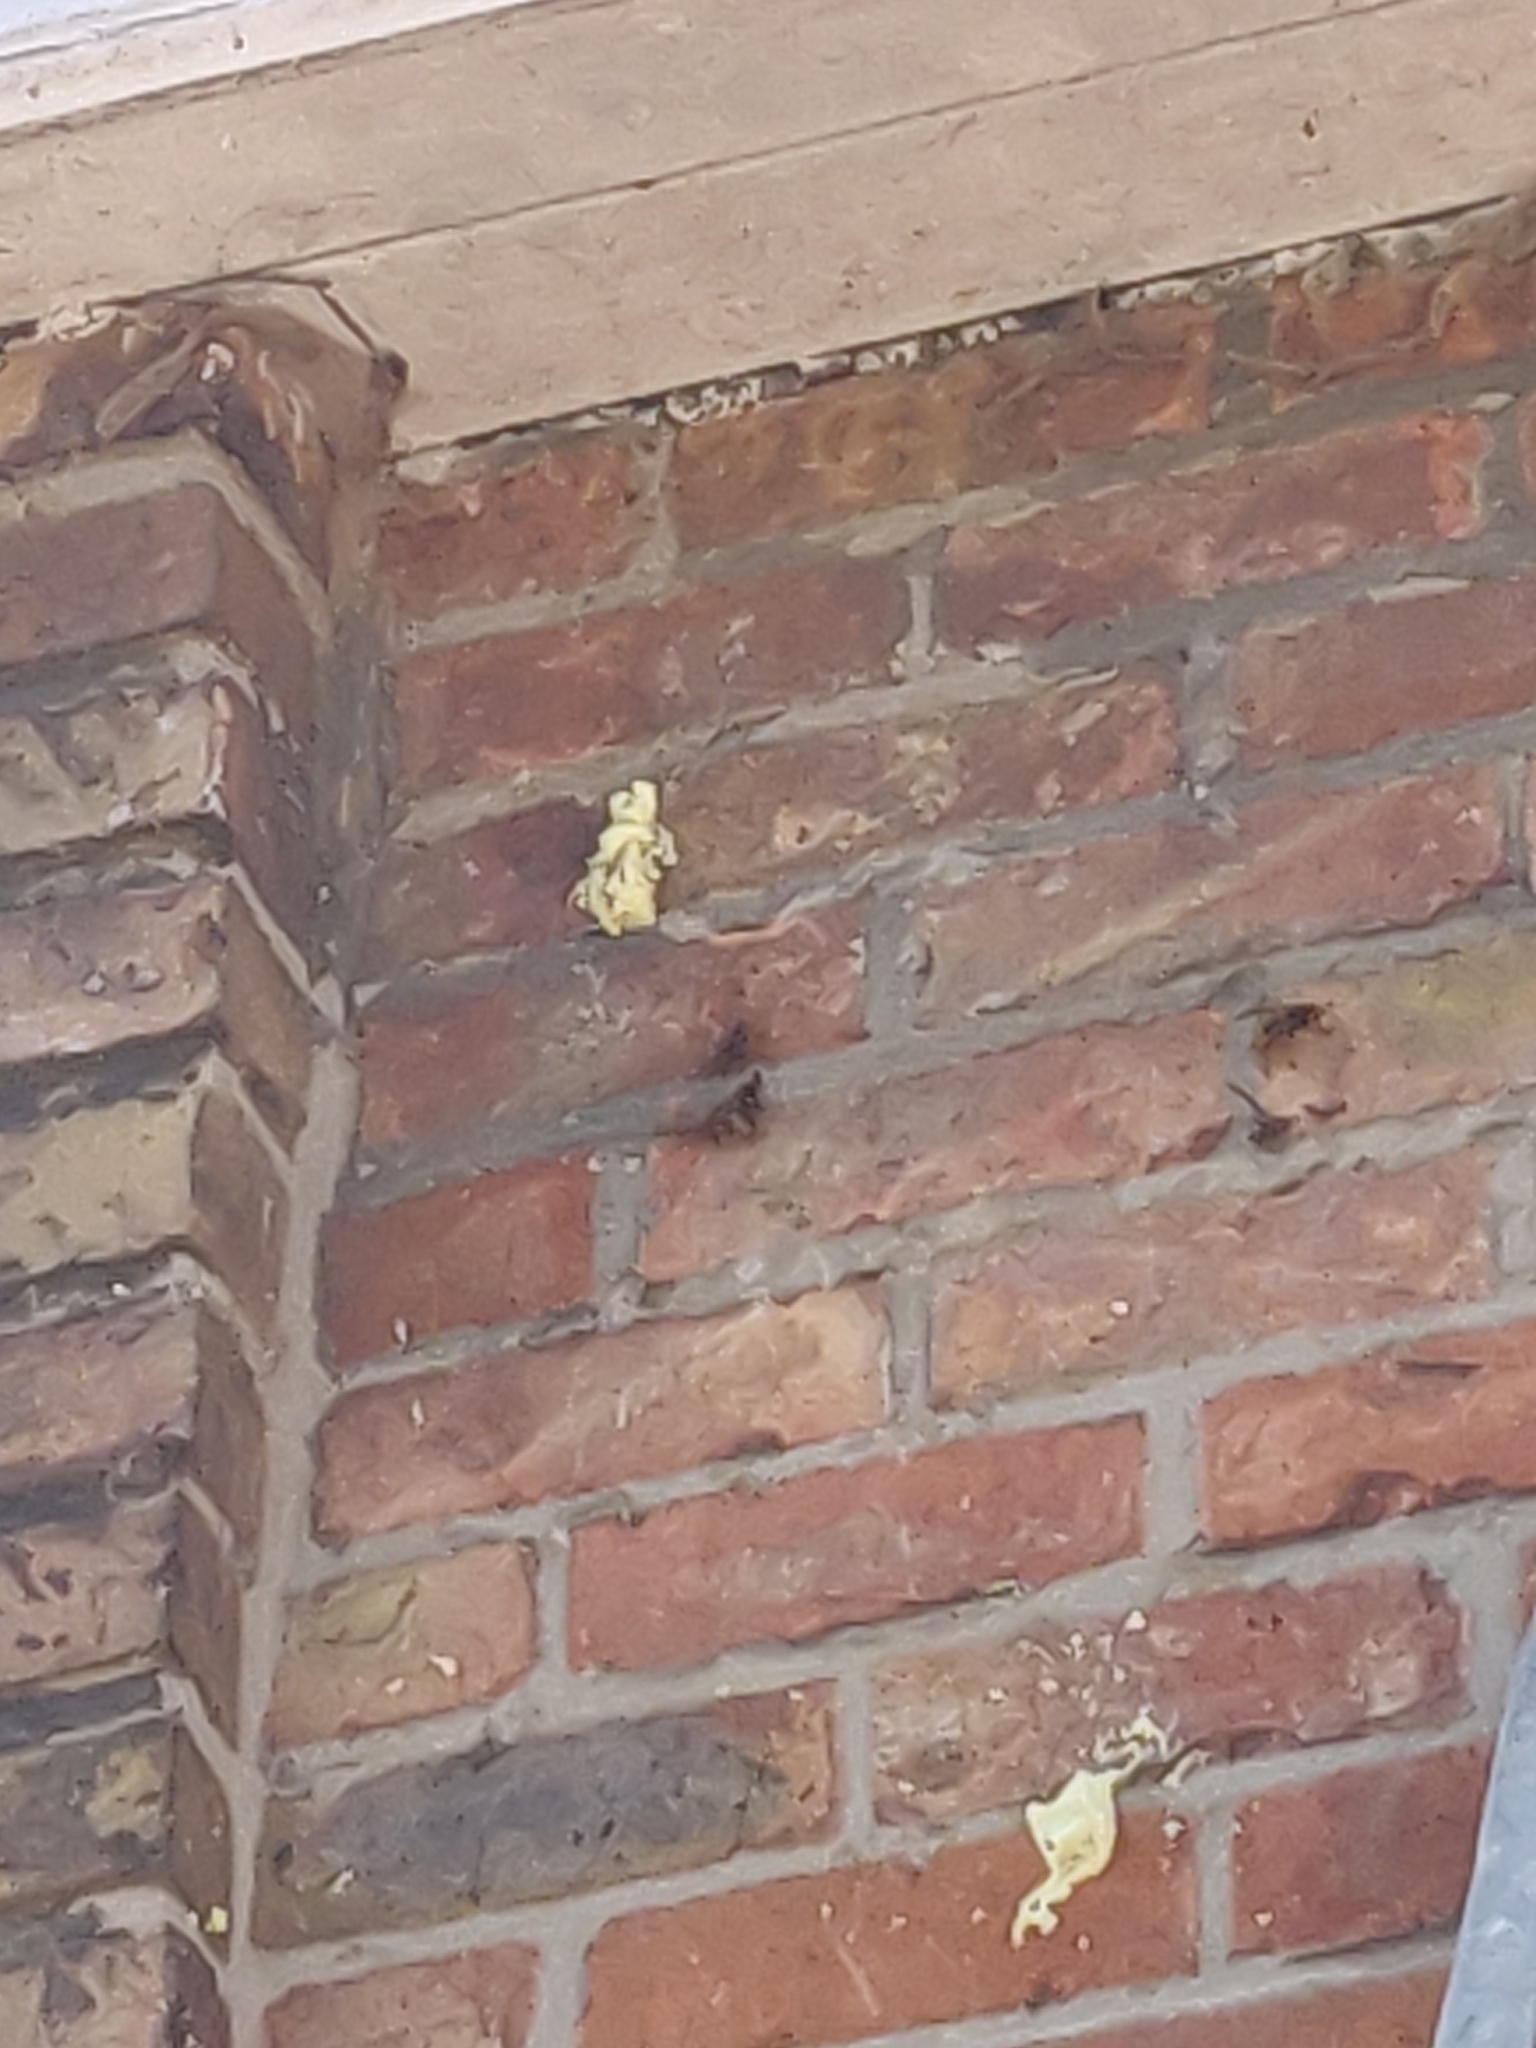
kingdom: Animalia
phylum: Arthropoda
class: Insecta
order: Hymenoptera
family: Vespidae
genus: Vespa
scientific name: Vespa crabro
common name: Hornet
